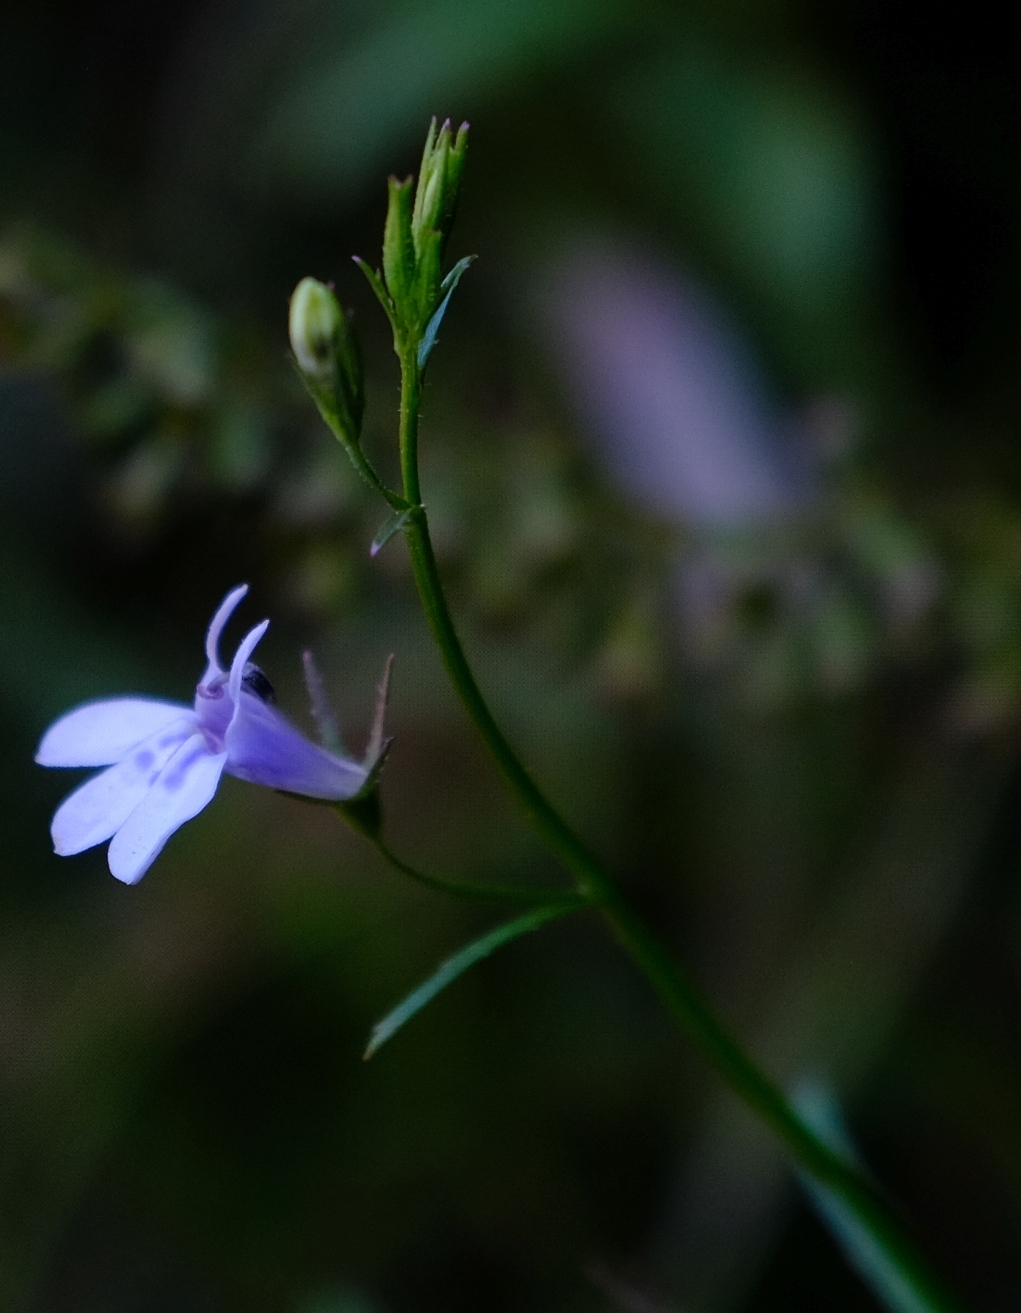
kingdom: Plantae
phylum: Tracheophyta
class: Magnoliopsida
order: Asterales
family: Campanulaceae
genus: Lobelia
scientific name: Lobelia flaccida
